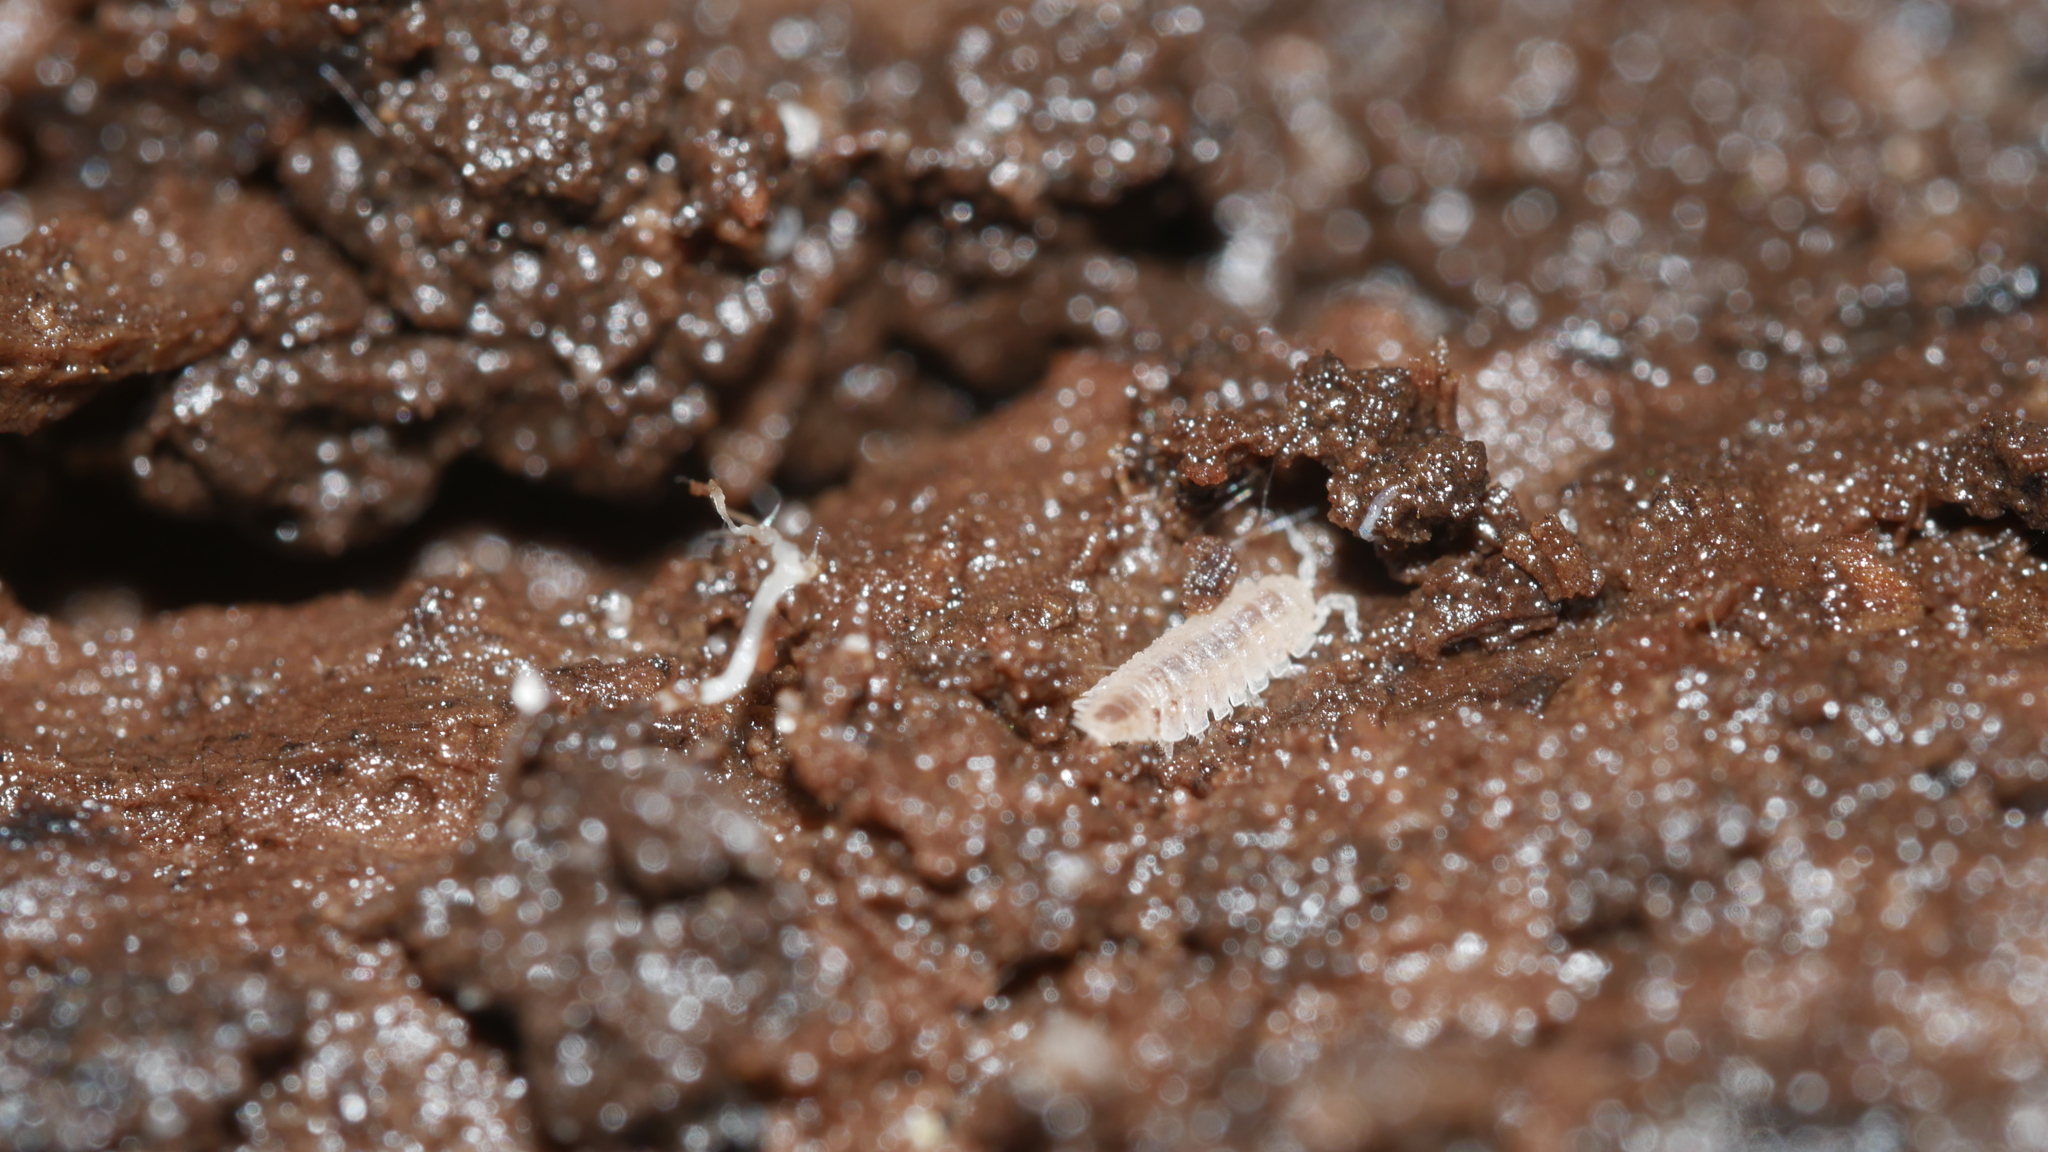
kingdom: Animalia
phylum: Arthropoda
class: Malacostraca
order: Isopoda
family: Trichoniscidae
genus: Haplophthalmus
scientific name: Haplophthalmus danicus
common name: Pillbug
